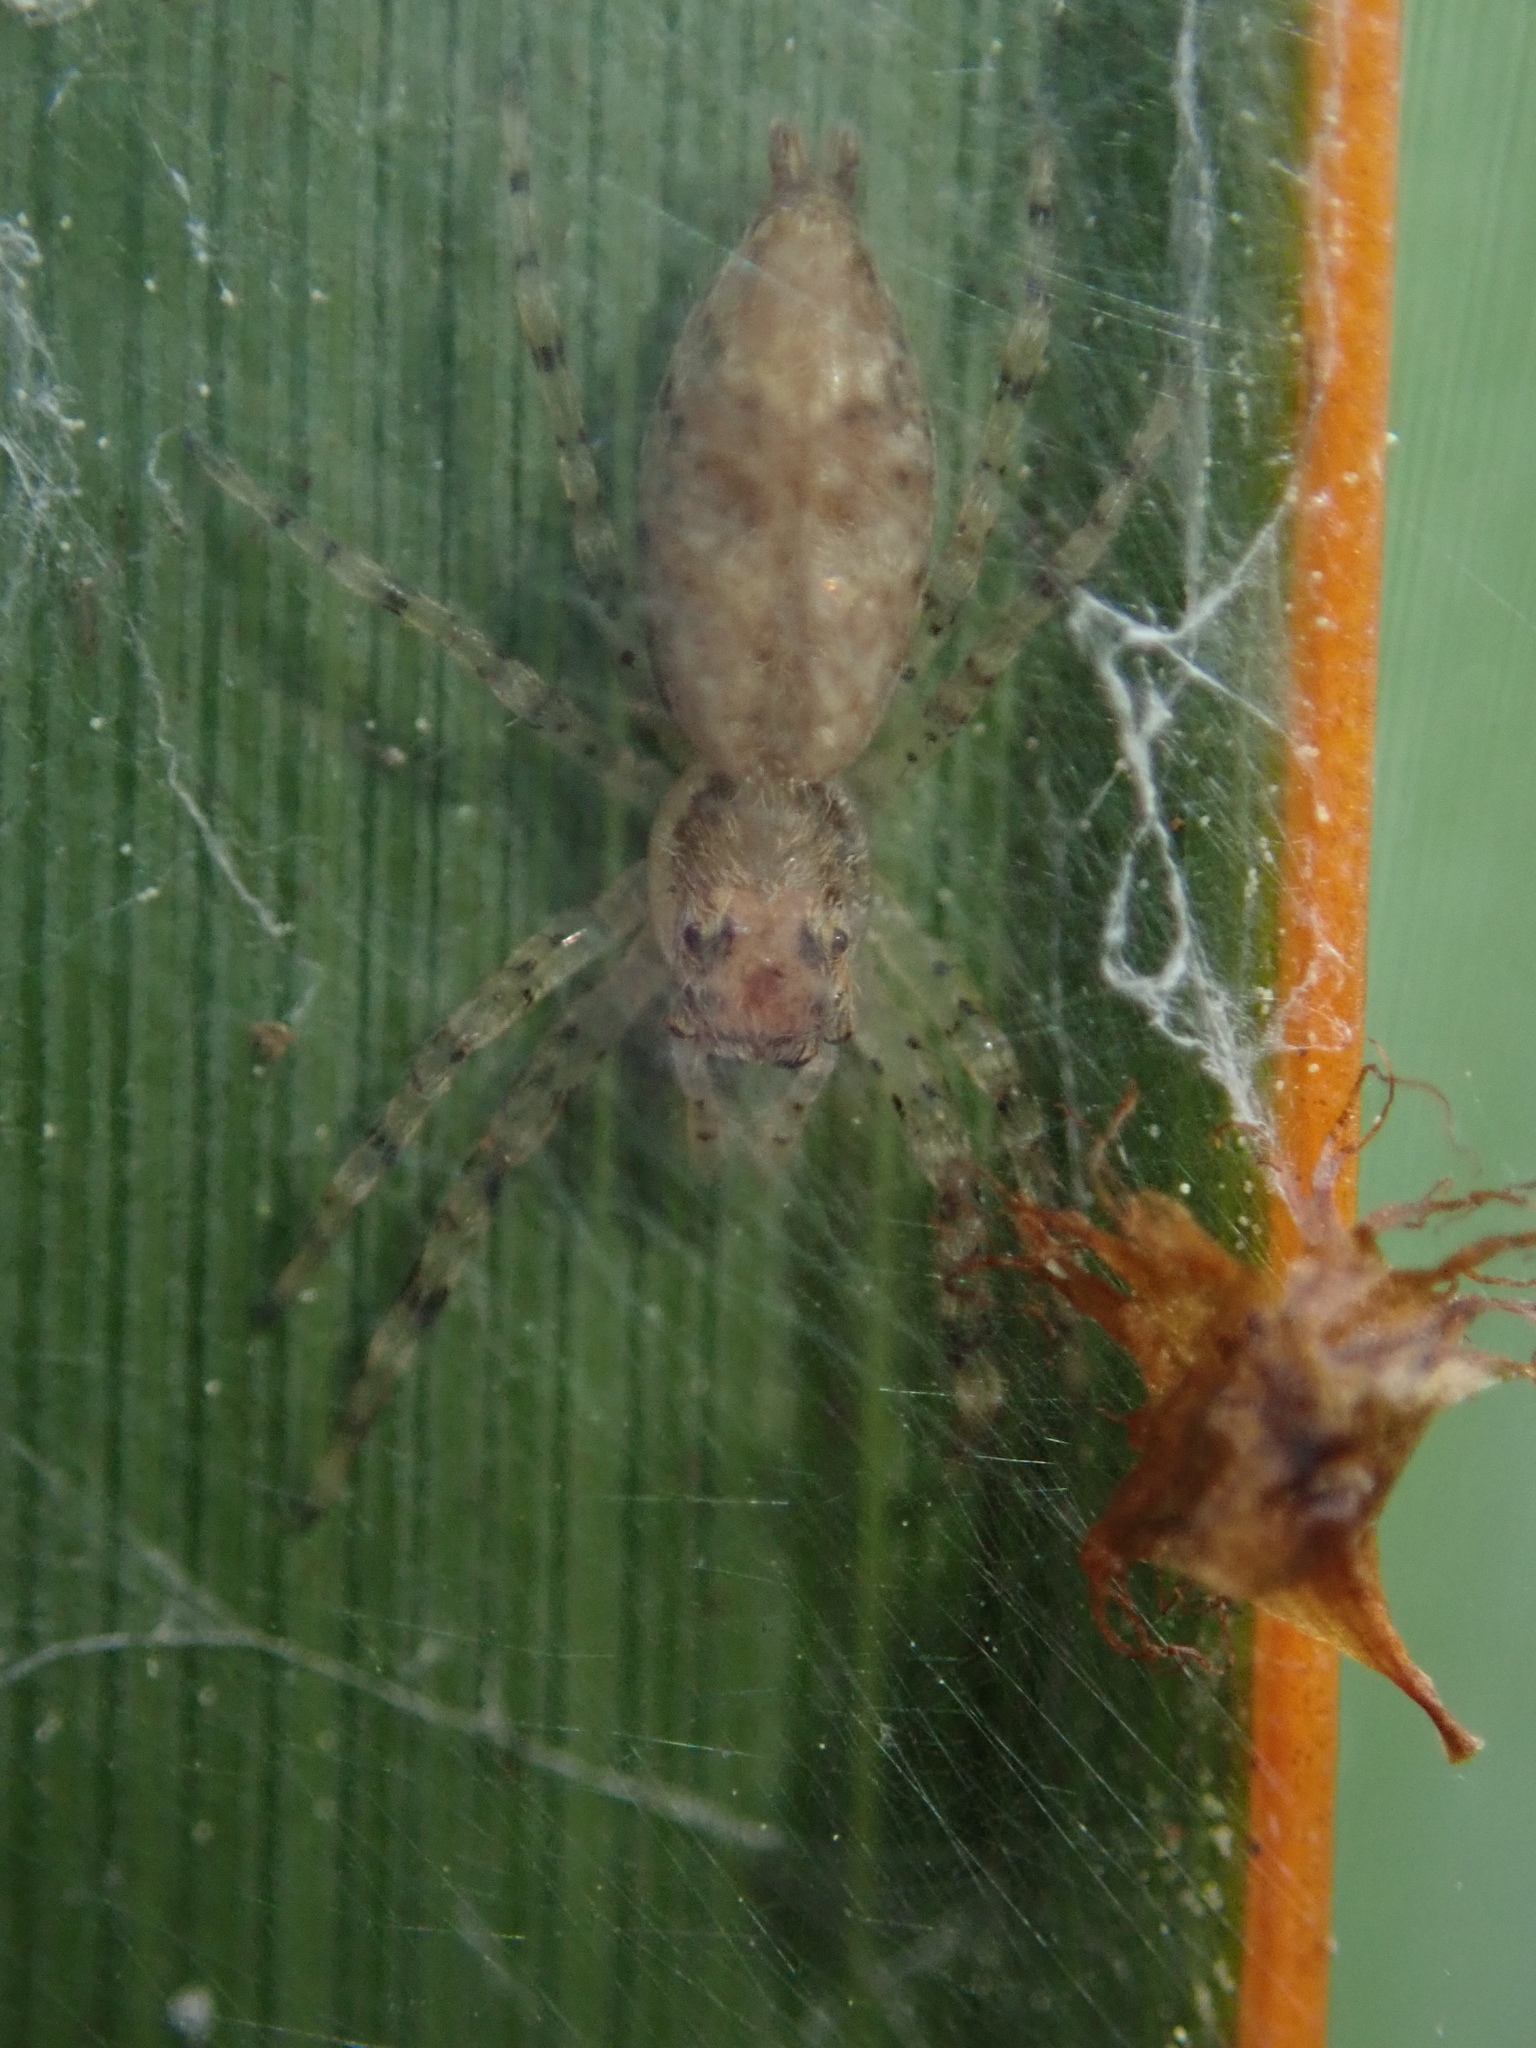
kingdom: Animalia
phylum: Arthropoda
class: Arachnida
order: Araneae
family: Salticidae
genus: Helpis
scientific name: Helpis minitabunda
